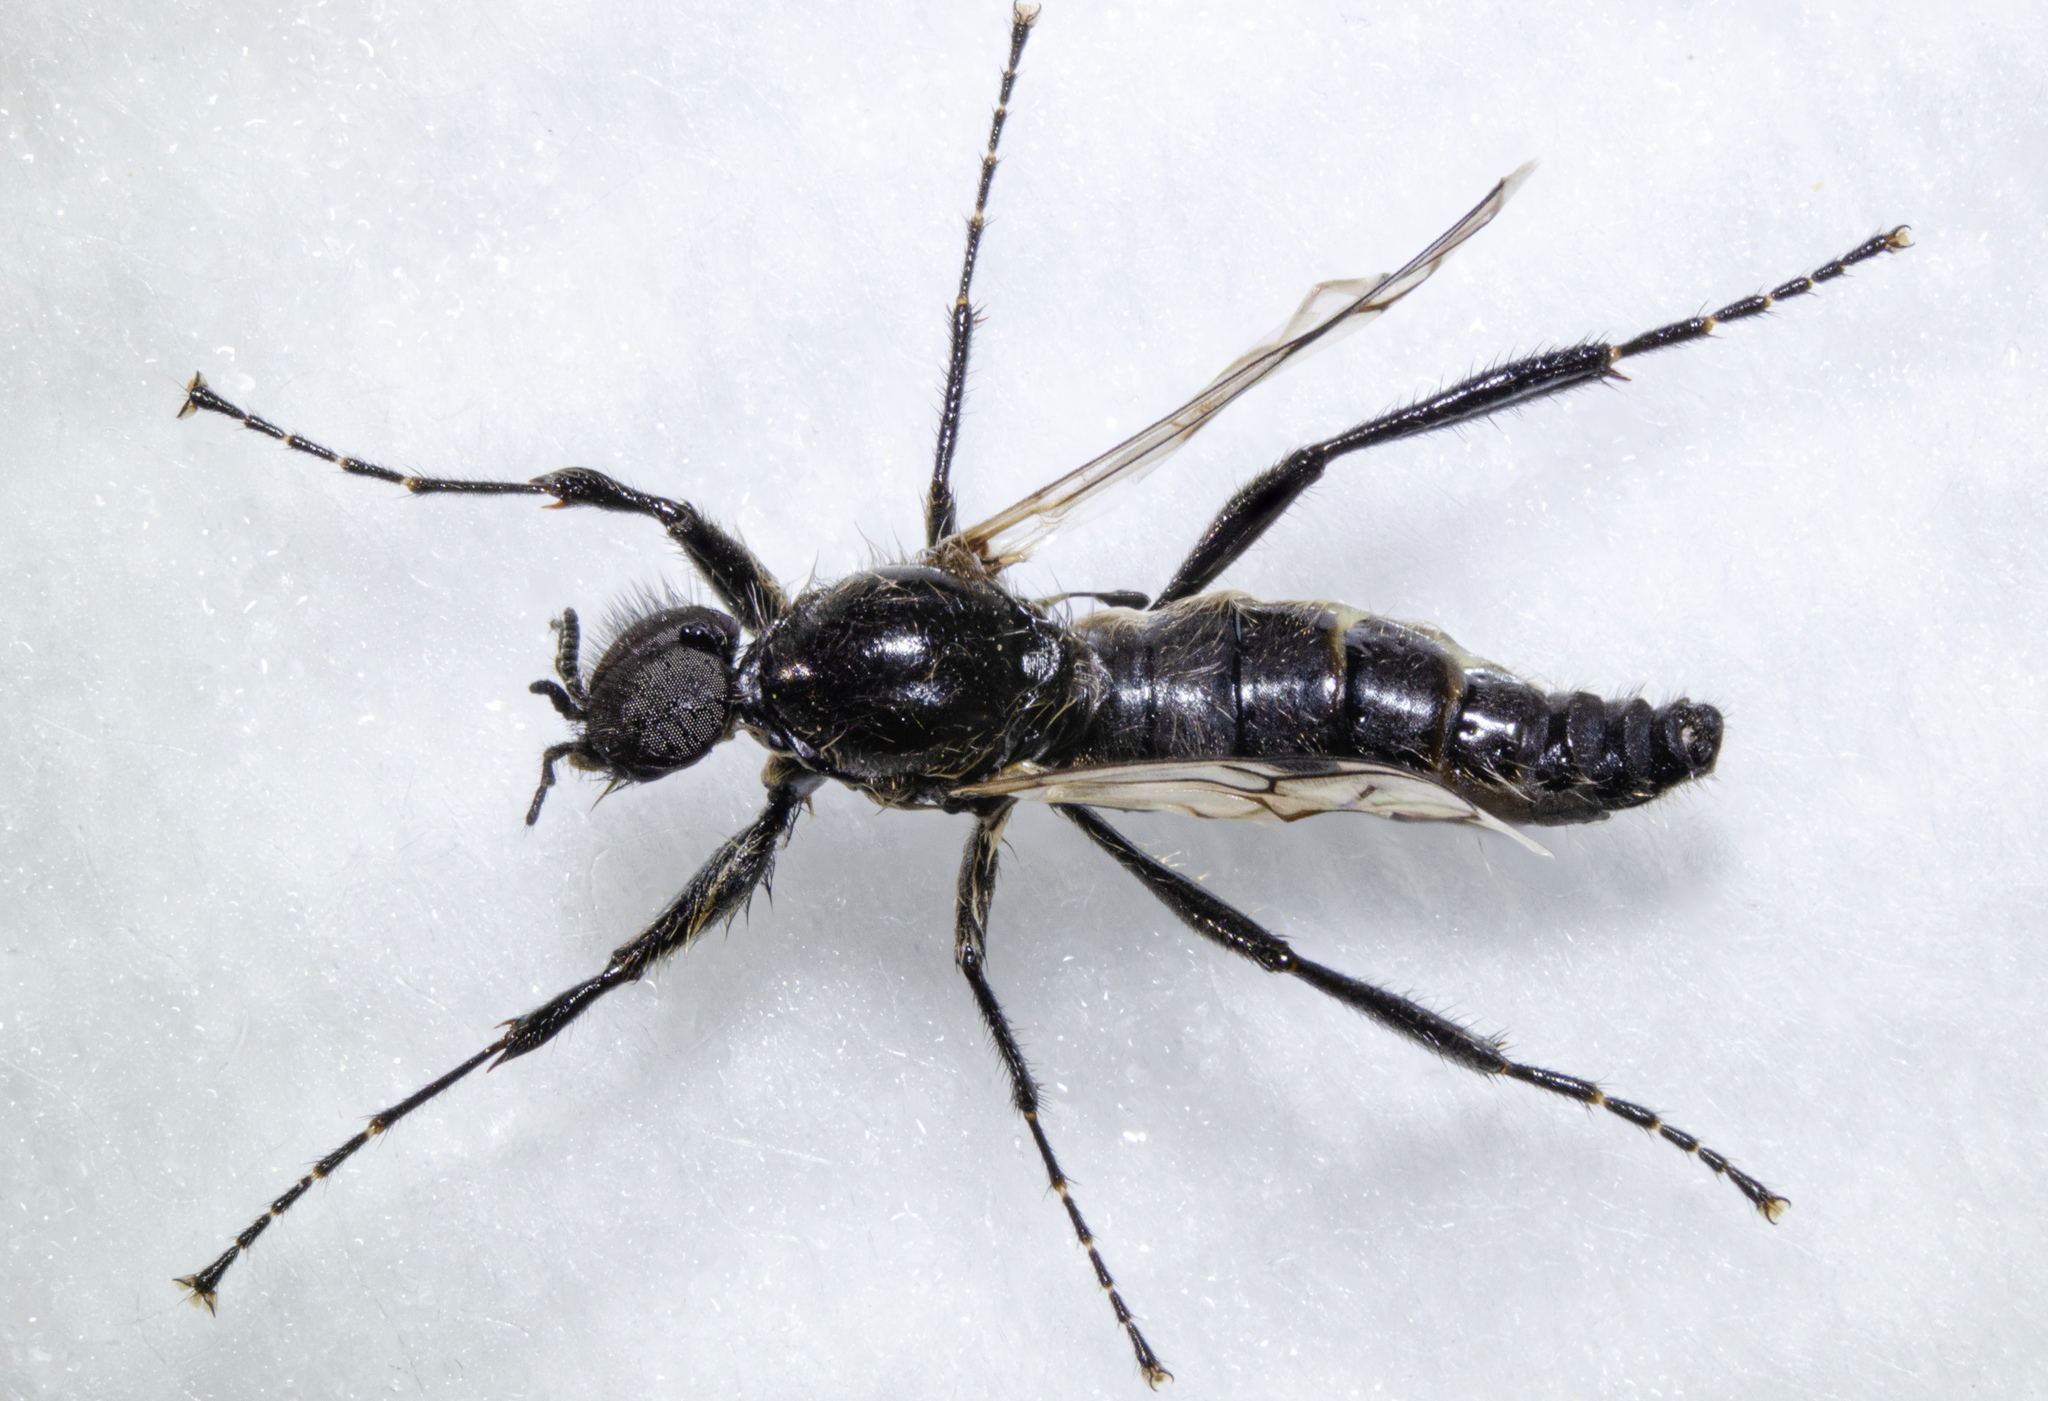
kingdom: Animalia
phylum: Arthropoda
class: Insecta
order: Diptera
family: Bibionidae
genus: Bibio
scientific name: Bibio albipennis
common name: White-winged march fly
